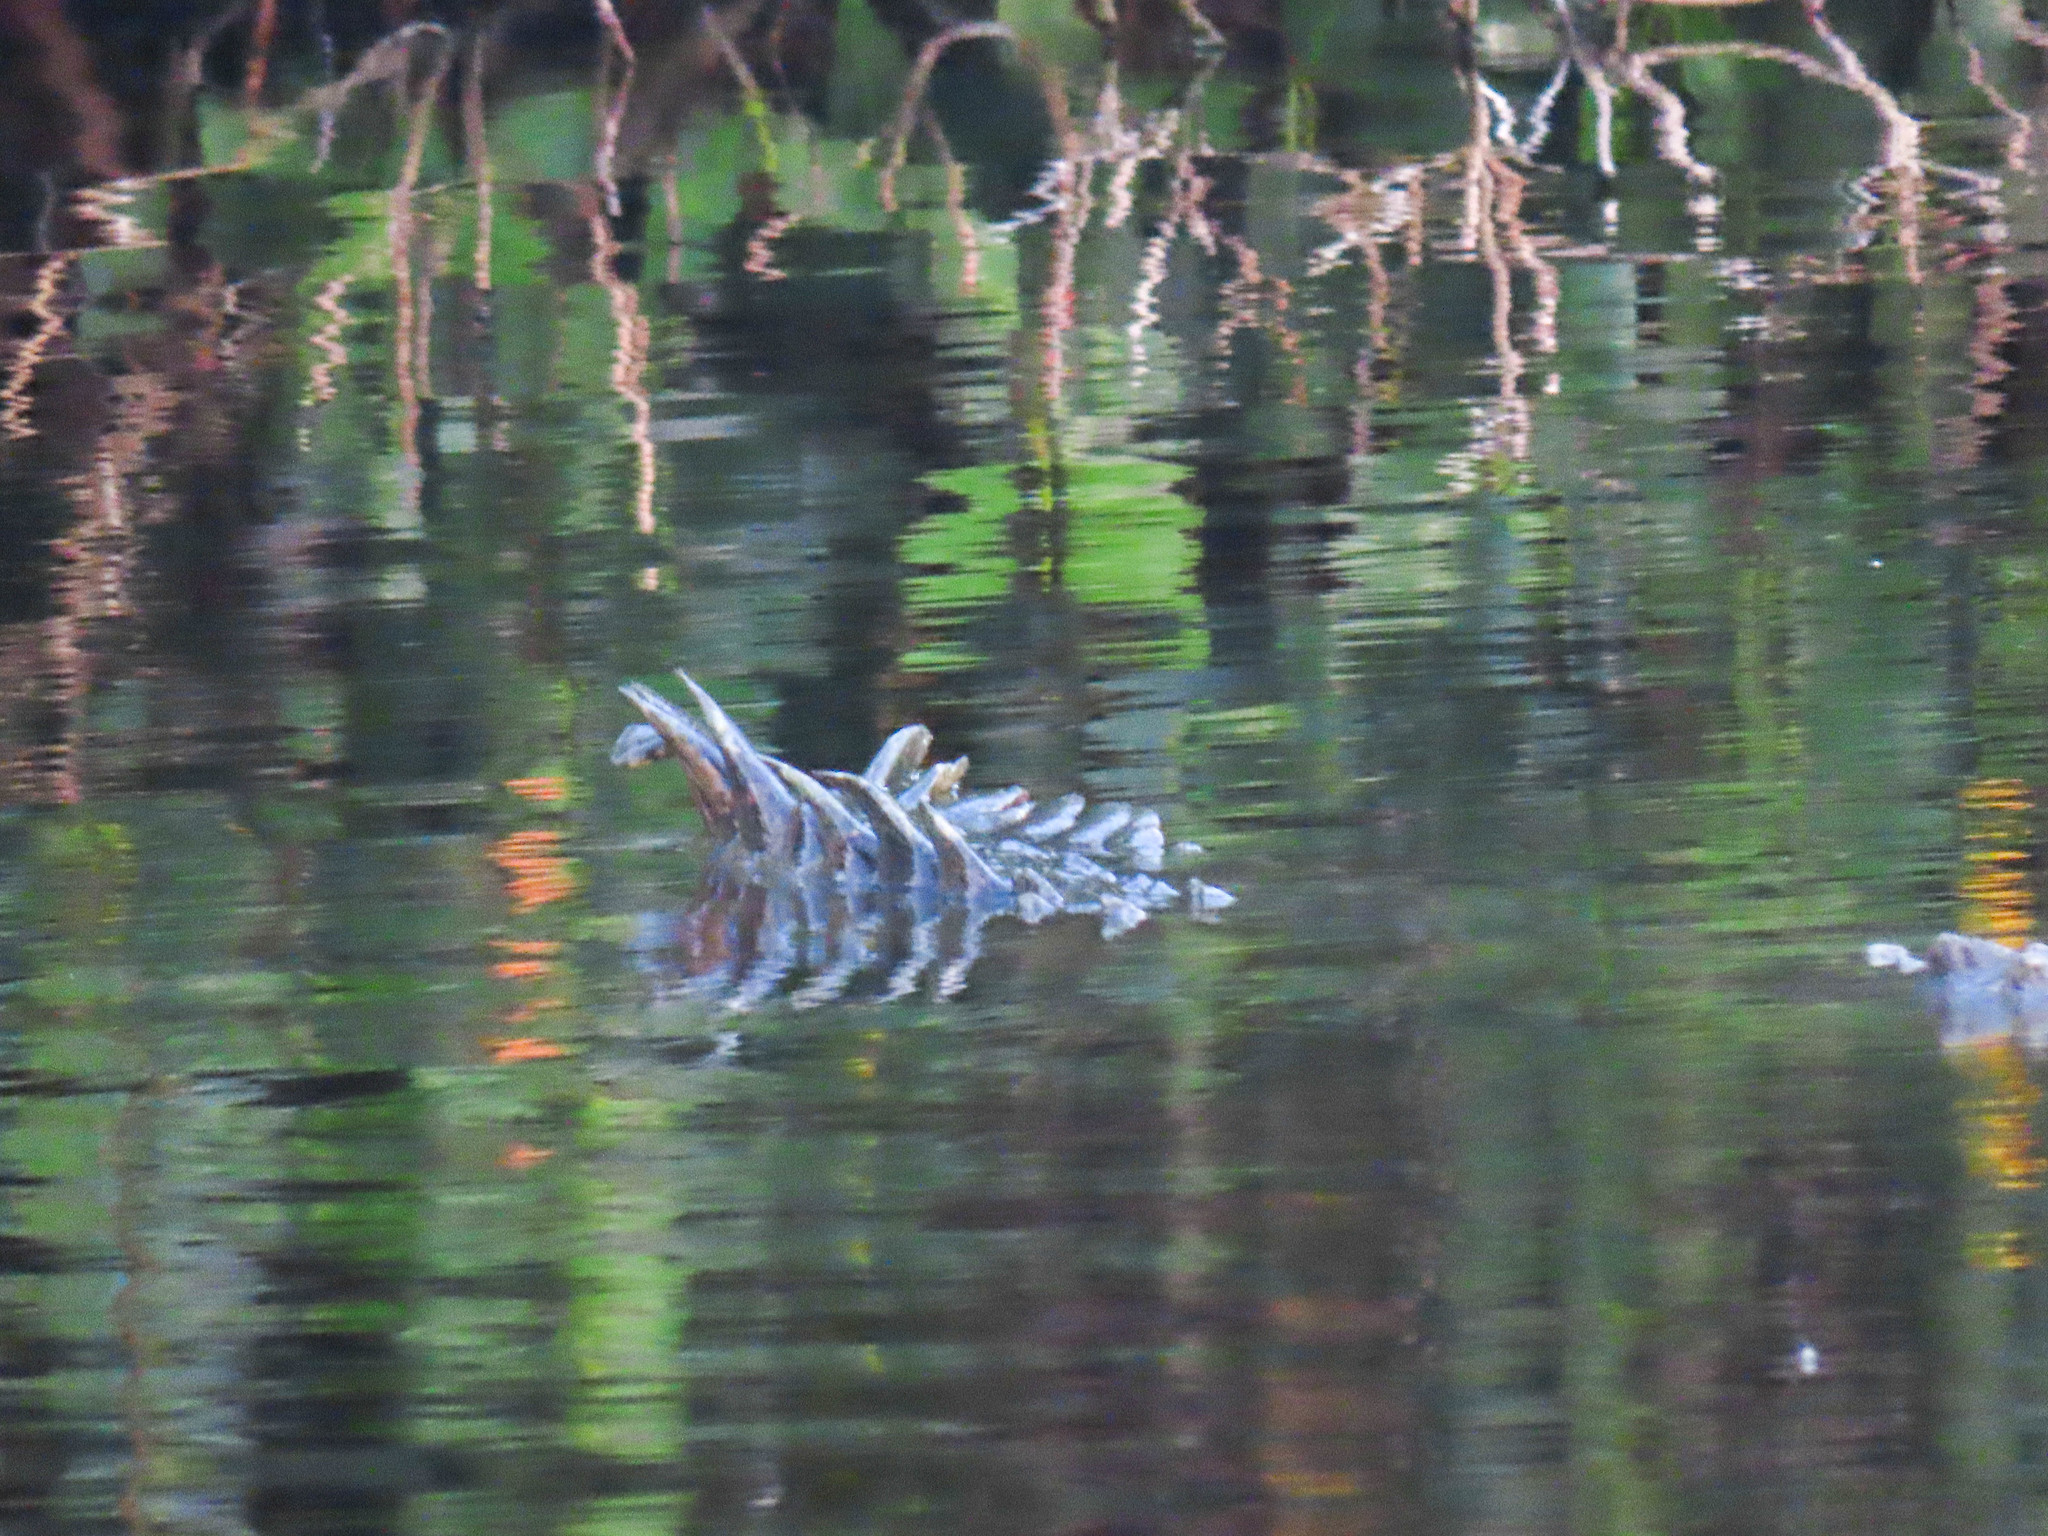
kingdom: Animalia
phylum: Chordata
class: Crocodylia
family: Crocodylidae
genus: Crocodylus
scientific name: Crocodylus acutus
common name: American crocodile
